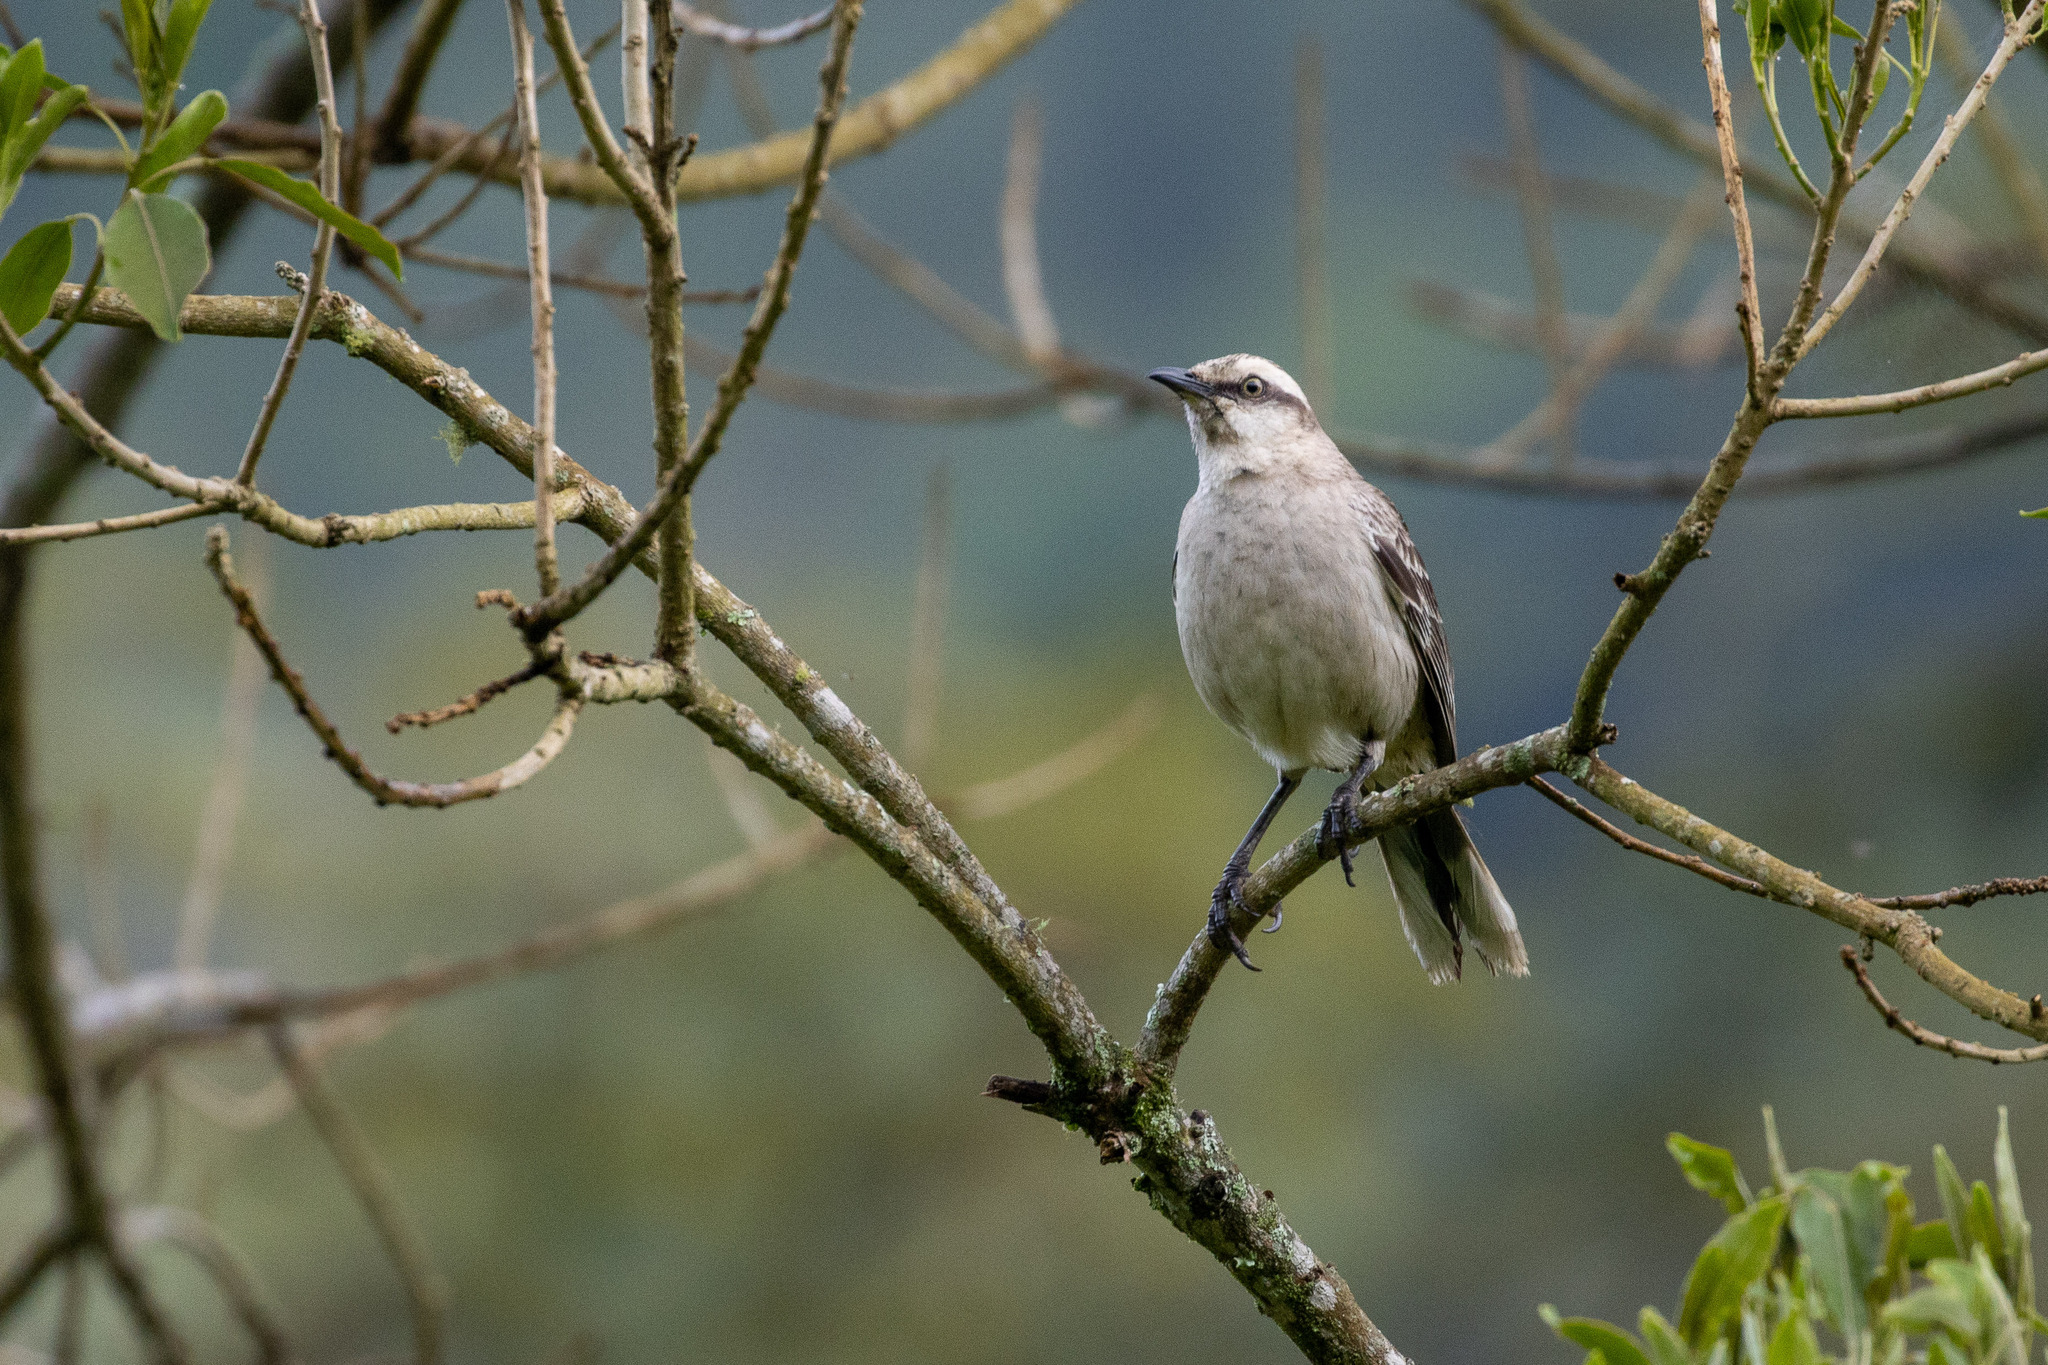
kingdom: Animalia
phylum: Chordata
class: Aves
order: Passeriformes
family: Mimidae
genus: Mimus
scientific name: Mimus saturninus
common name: Chalk-browed mockingbird
